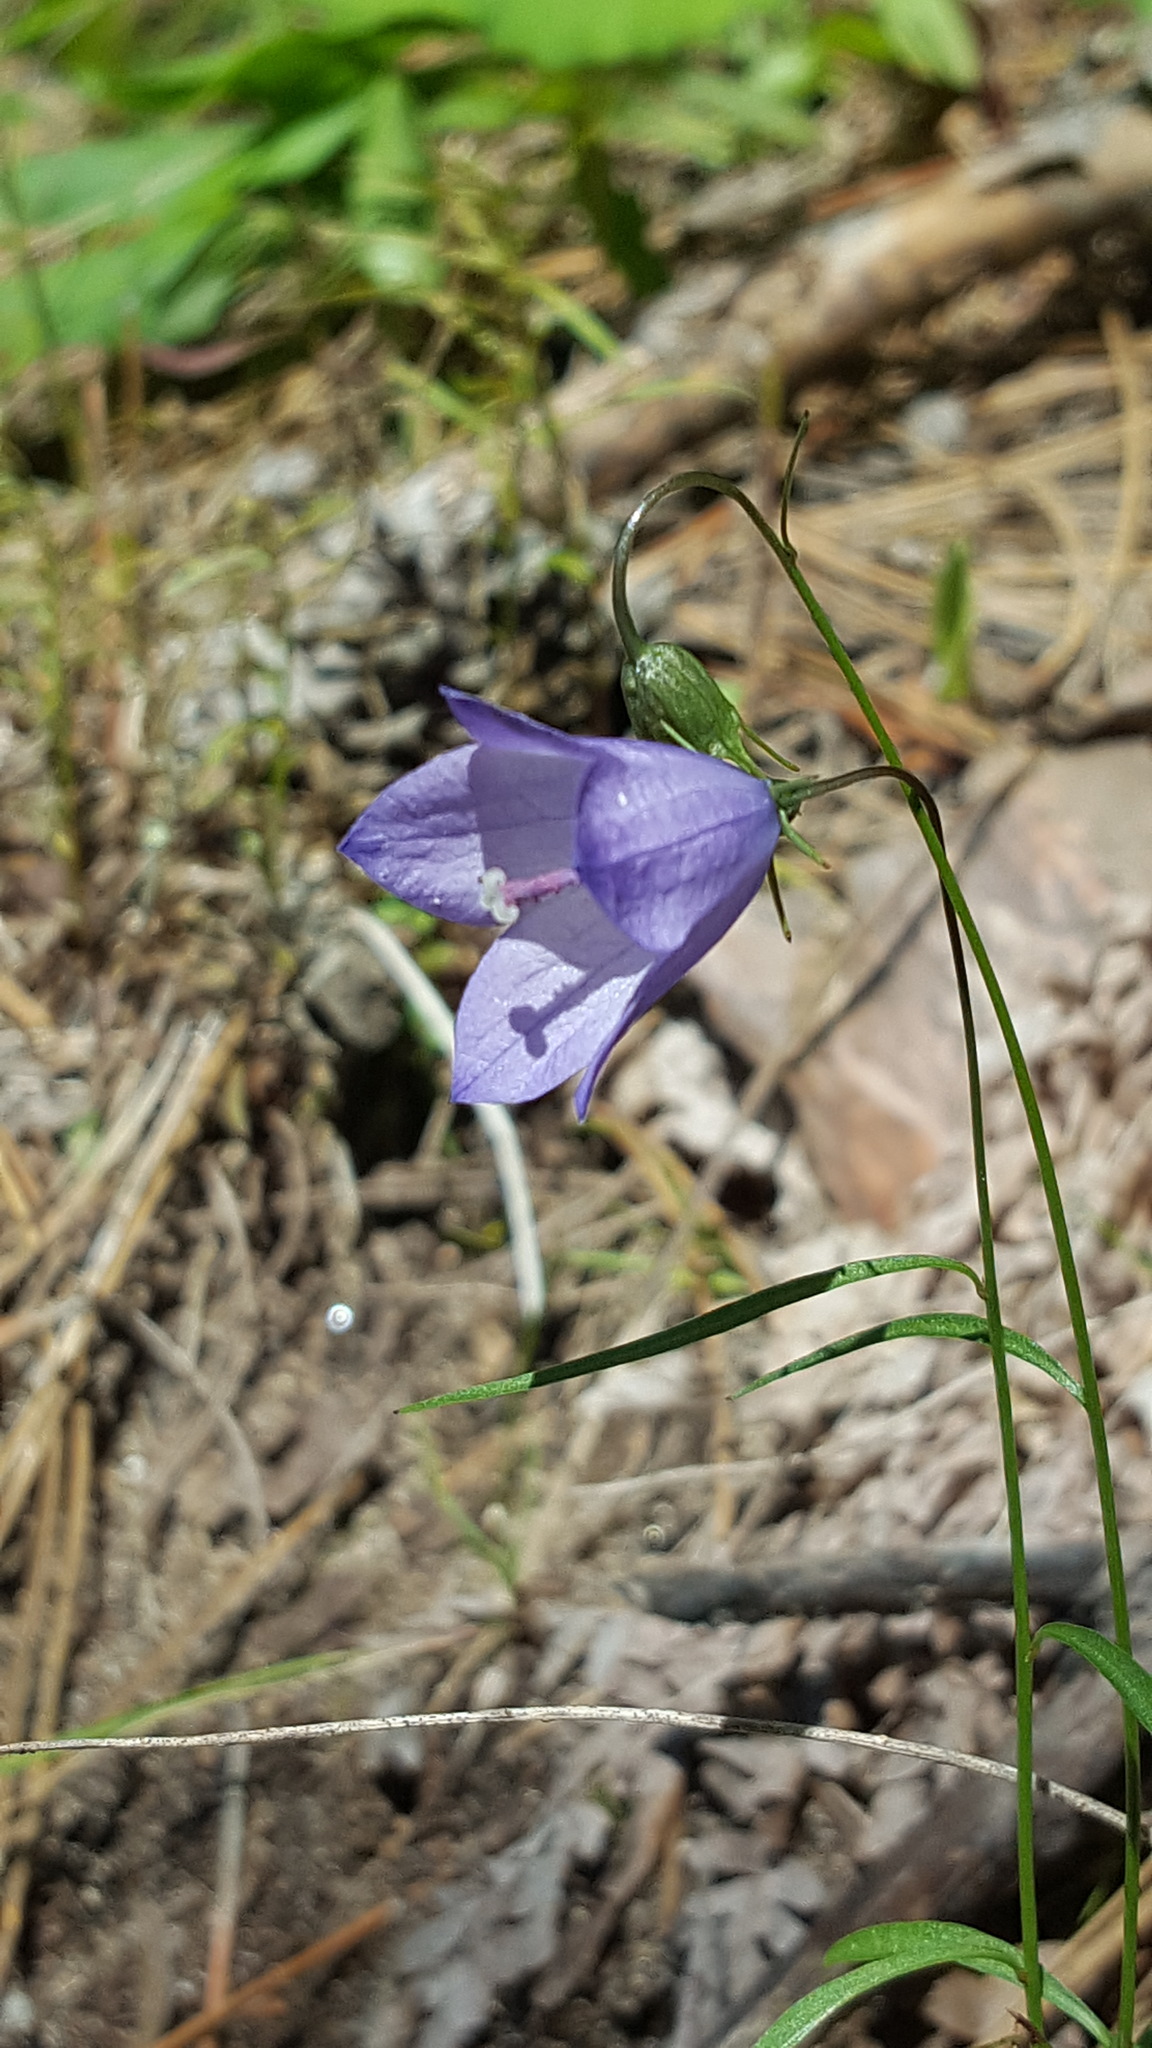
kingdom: Plantae
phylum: Tracheophyta
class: Magnoliopsida
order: Asterales
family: Campanulaceae
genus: Campanula
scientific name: Campanula intercedens
